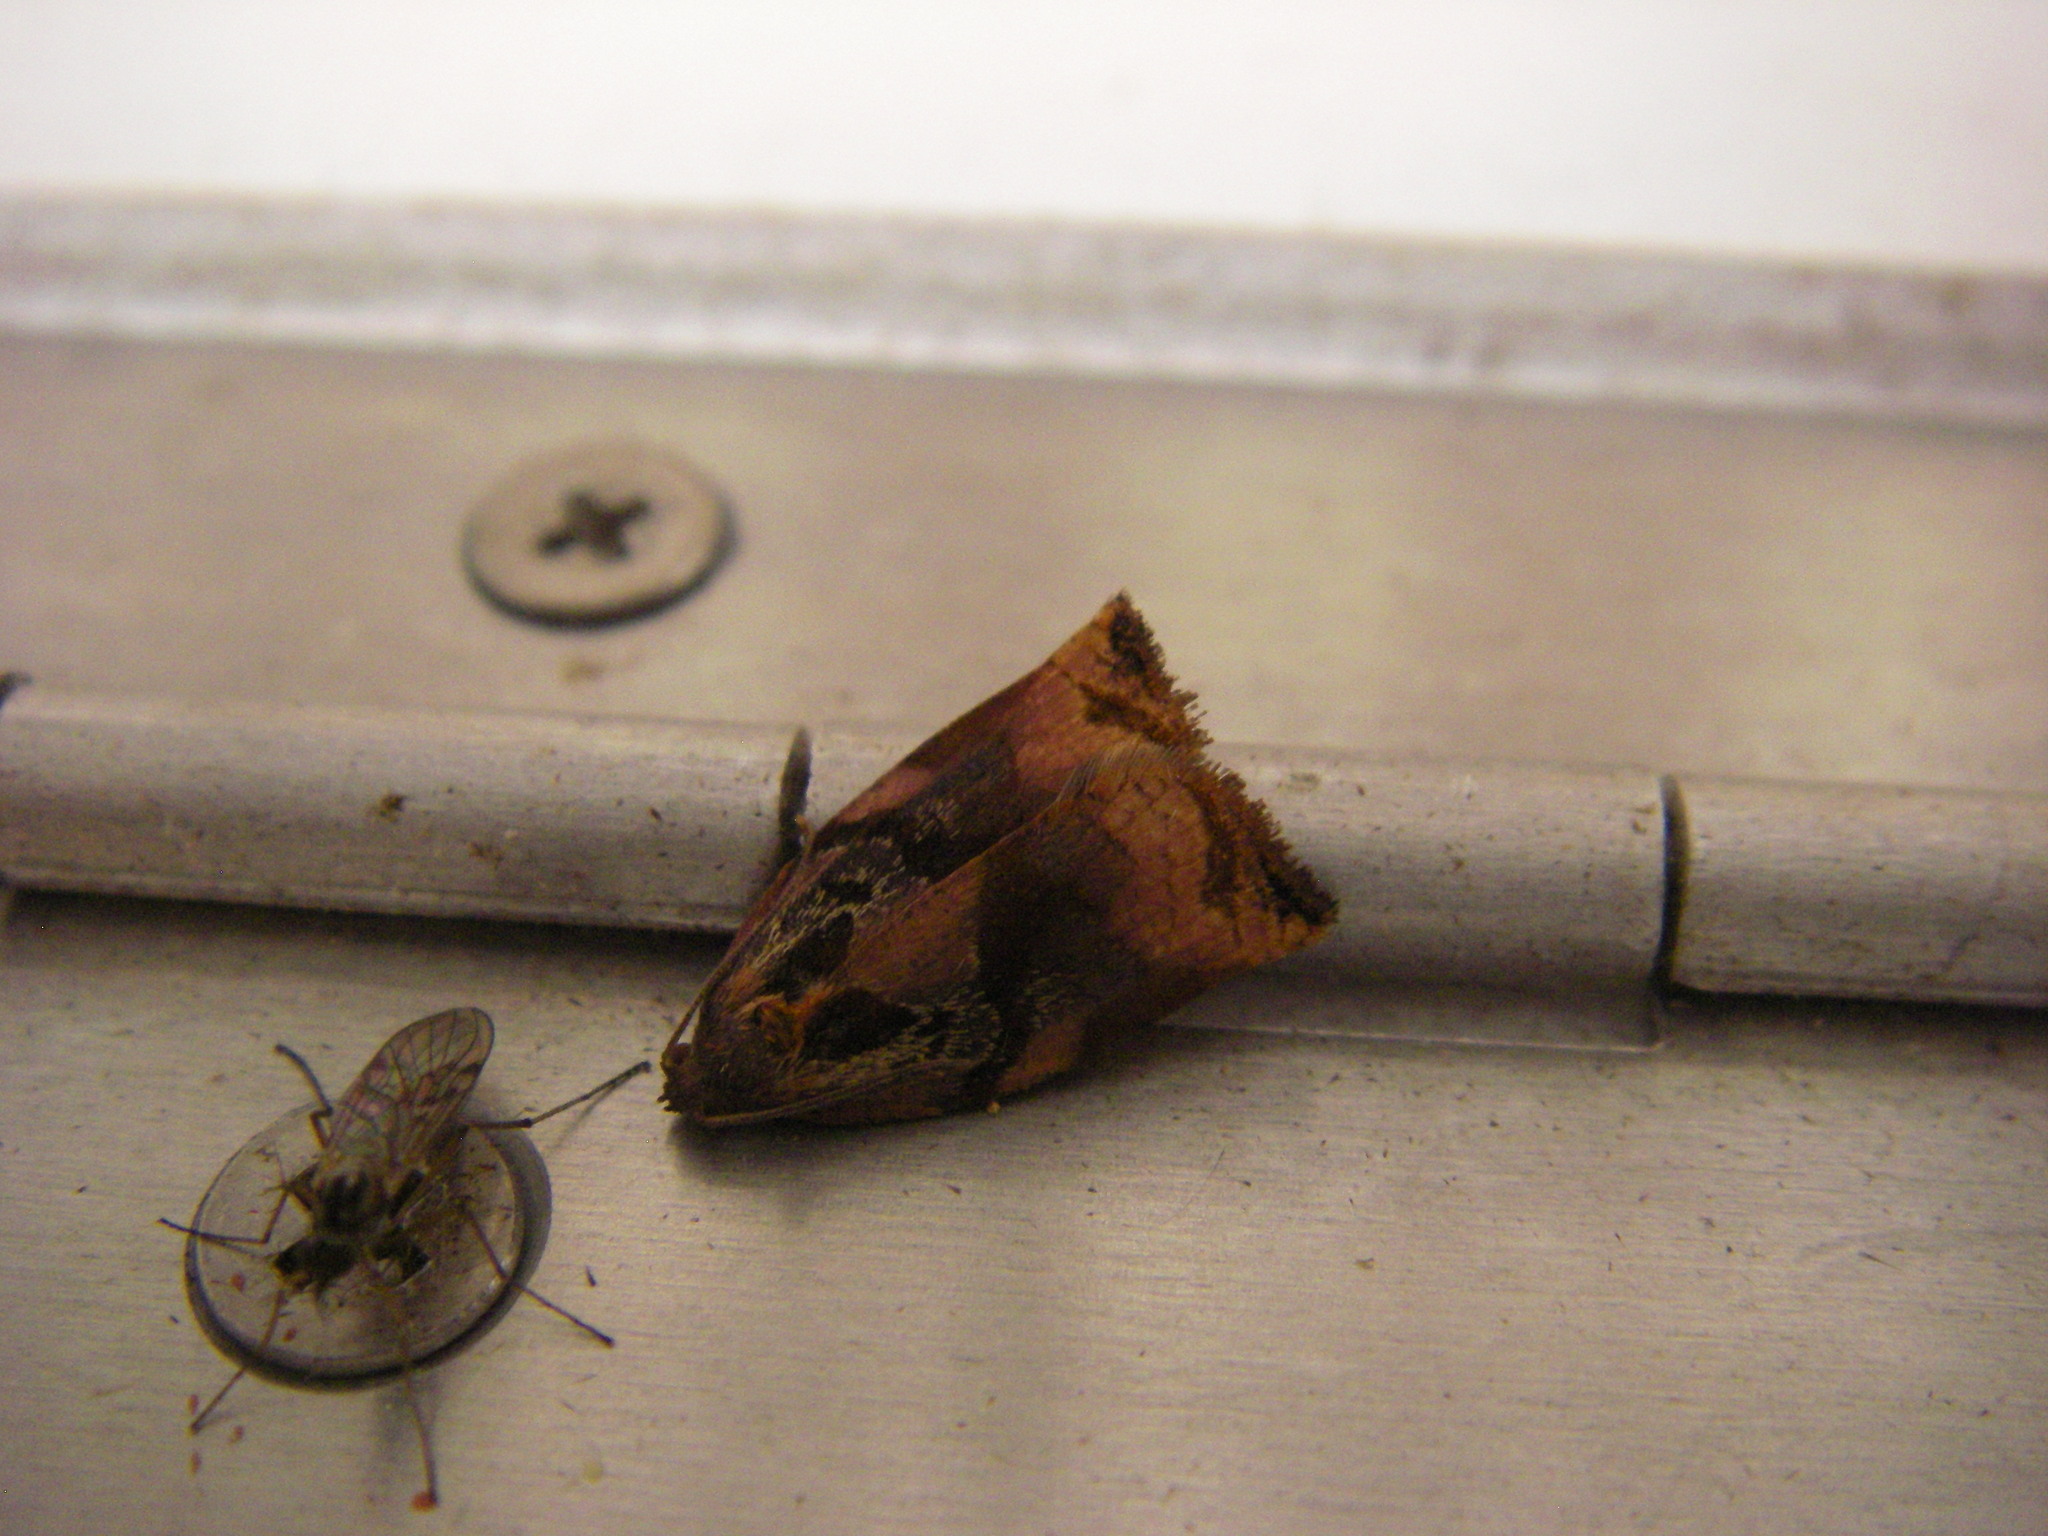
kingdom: Animalia
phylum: Arthropoda
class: Insecta
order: Lepidoptera
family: Tortricidae
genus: Archips
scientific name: Archips podana
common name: Large fruit-tree tortrix
